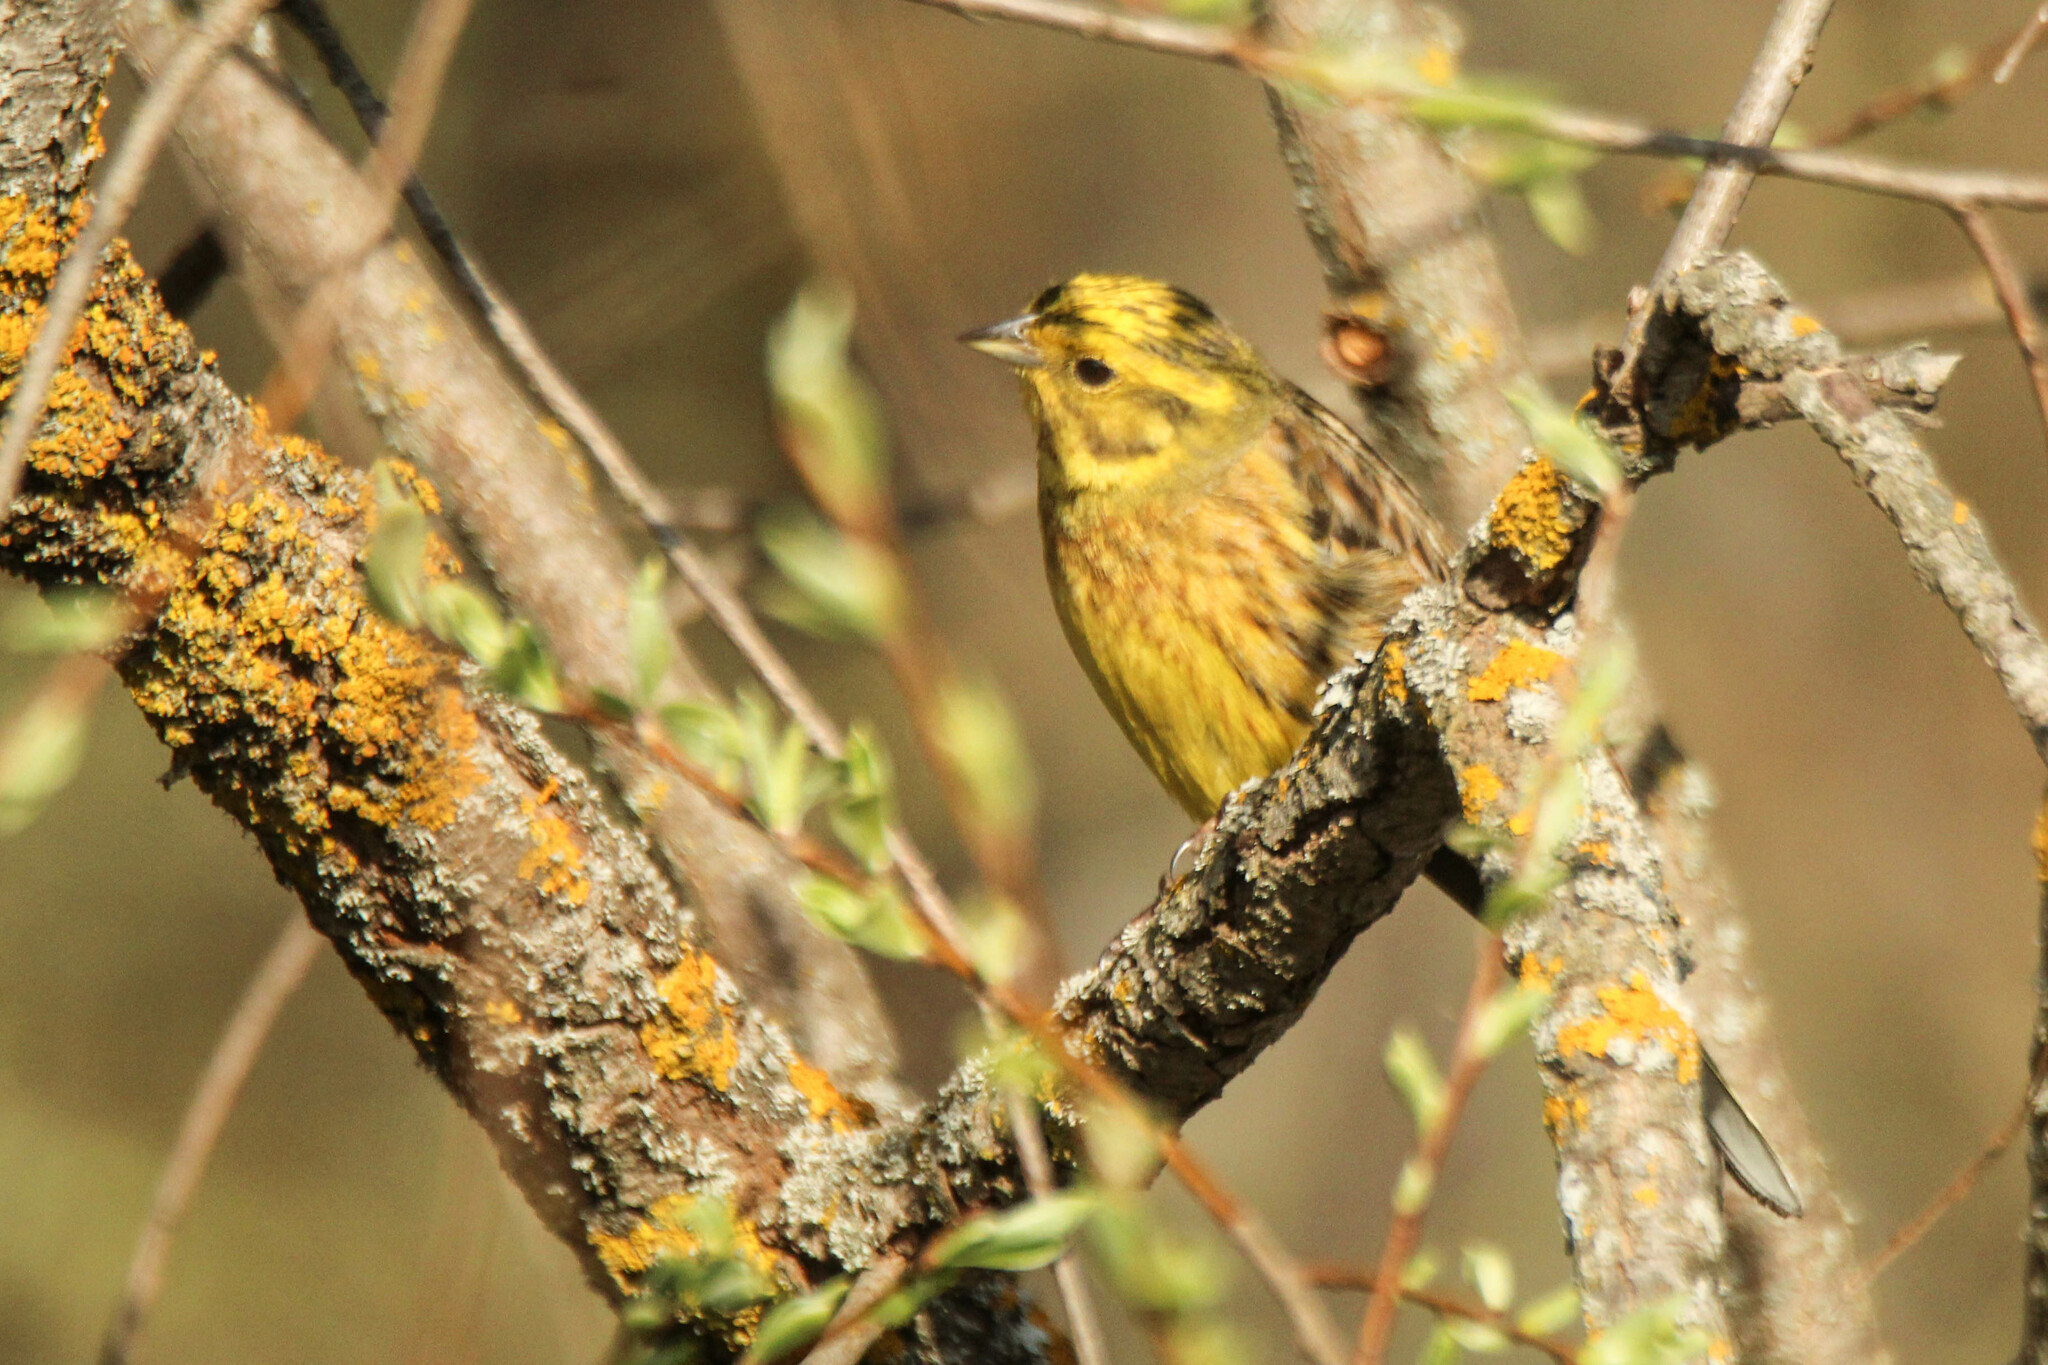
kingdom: Animalia
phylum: Chordata
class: Aves
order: Passeriformes
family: Emberizidae
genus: Emberiza
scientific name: Emberiza citrinella
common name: Yellowhammer
